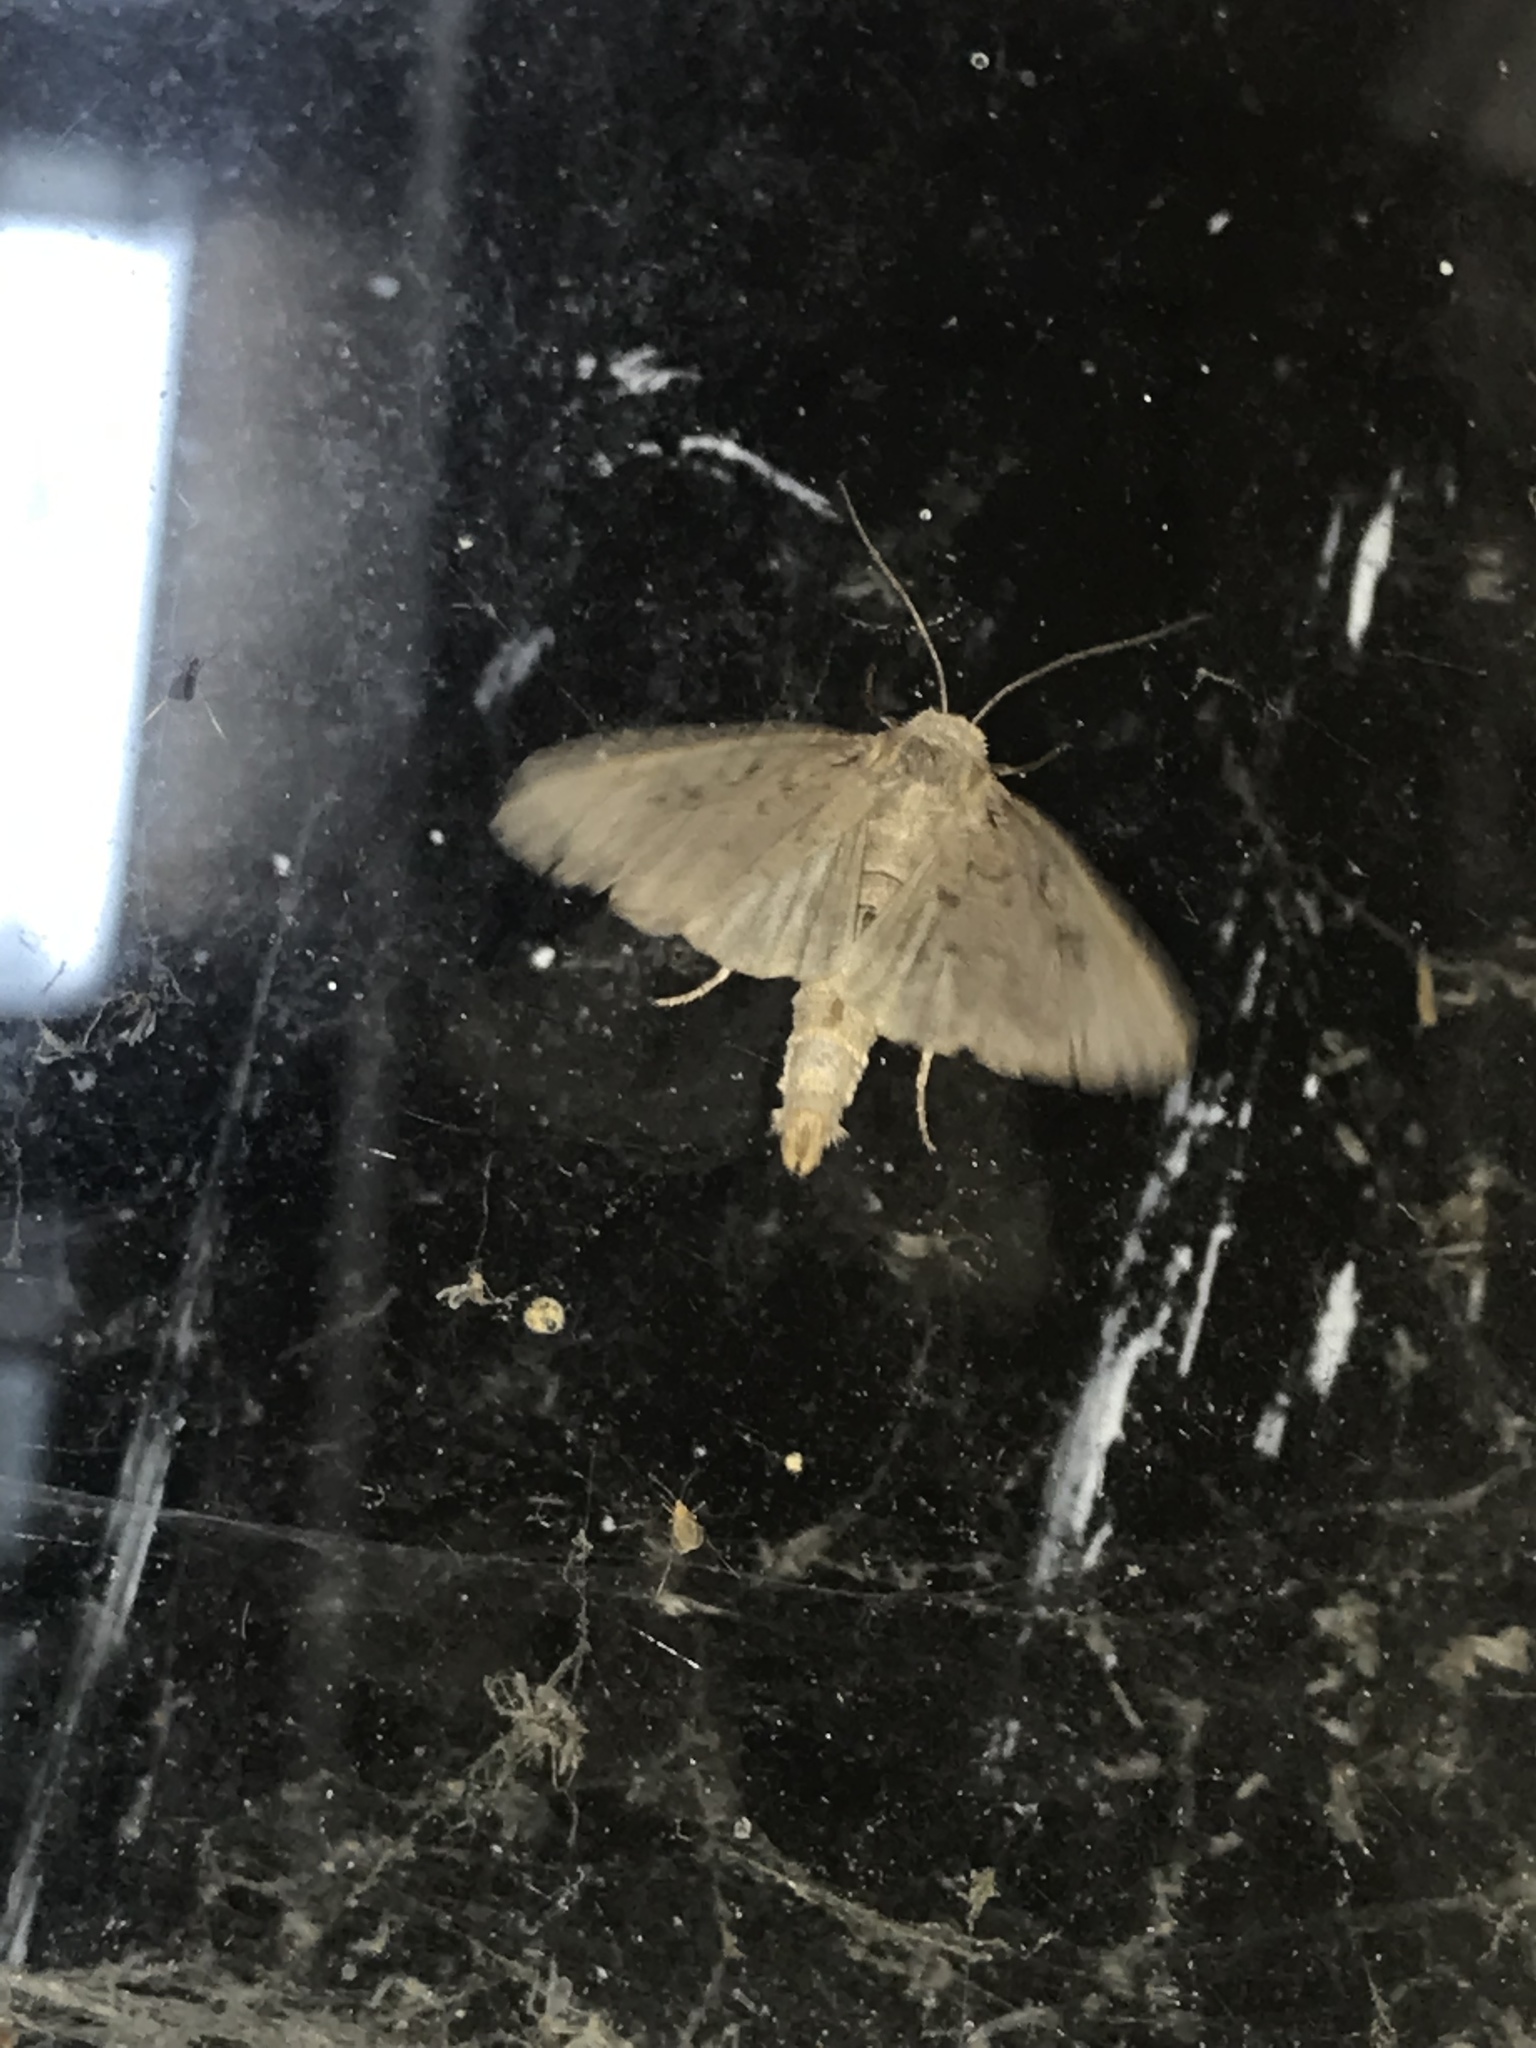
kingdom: Animalia
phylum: Arthropoda
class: Insecta
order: Lepidoptera
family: Noctuidae
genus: Graphiphora
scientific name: Graphiphora augur
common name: Double dart
